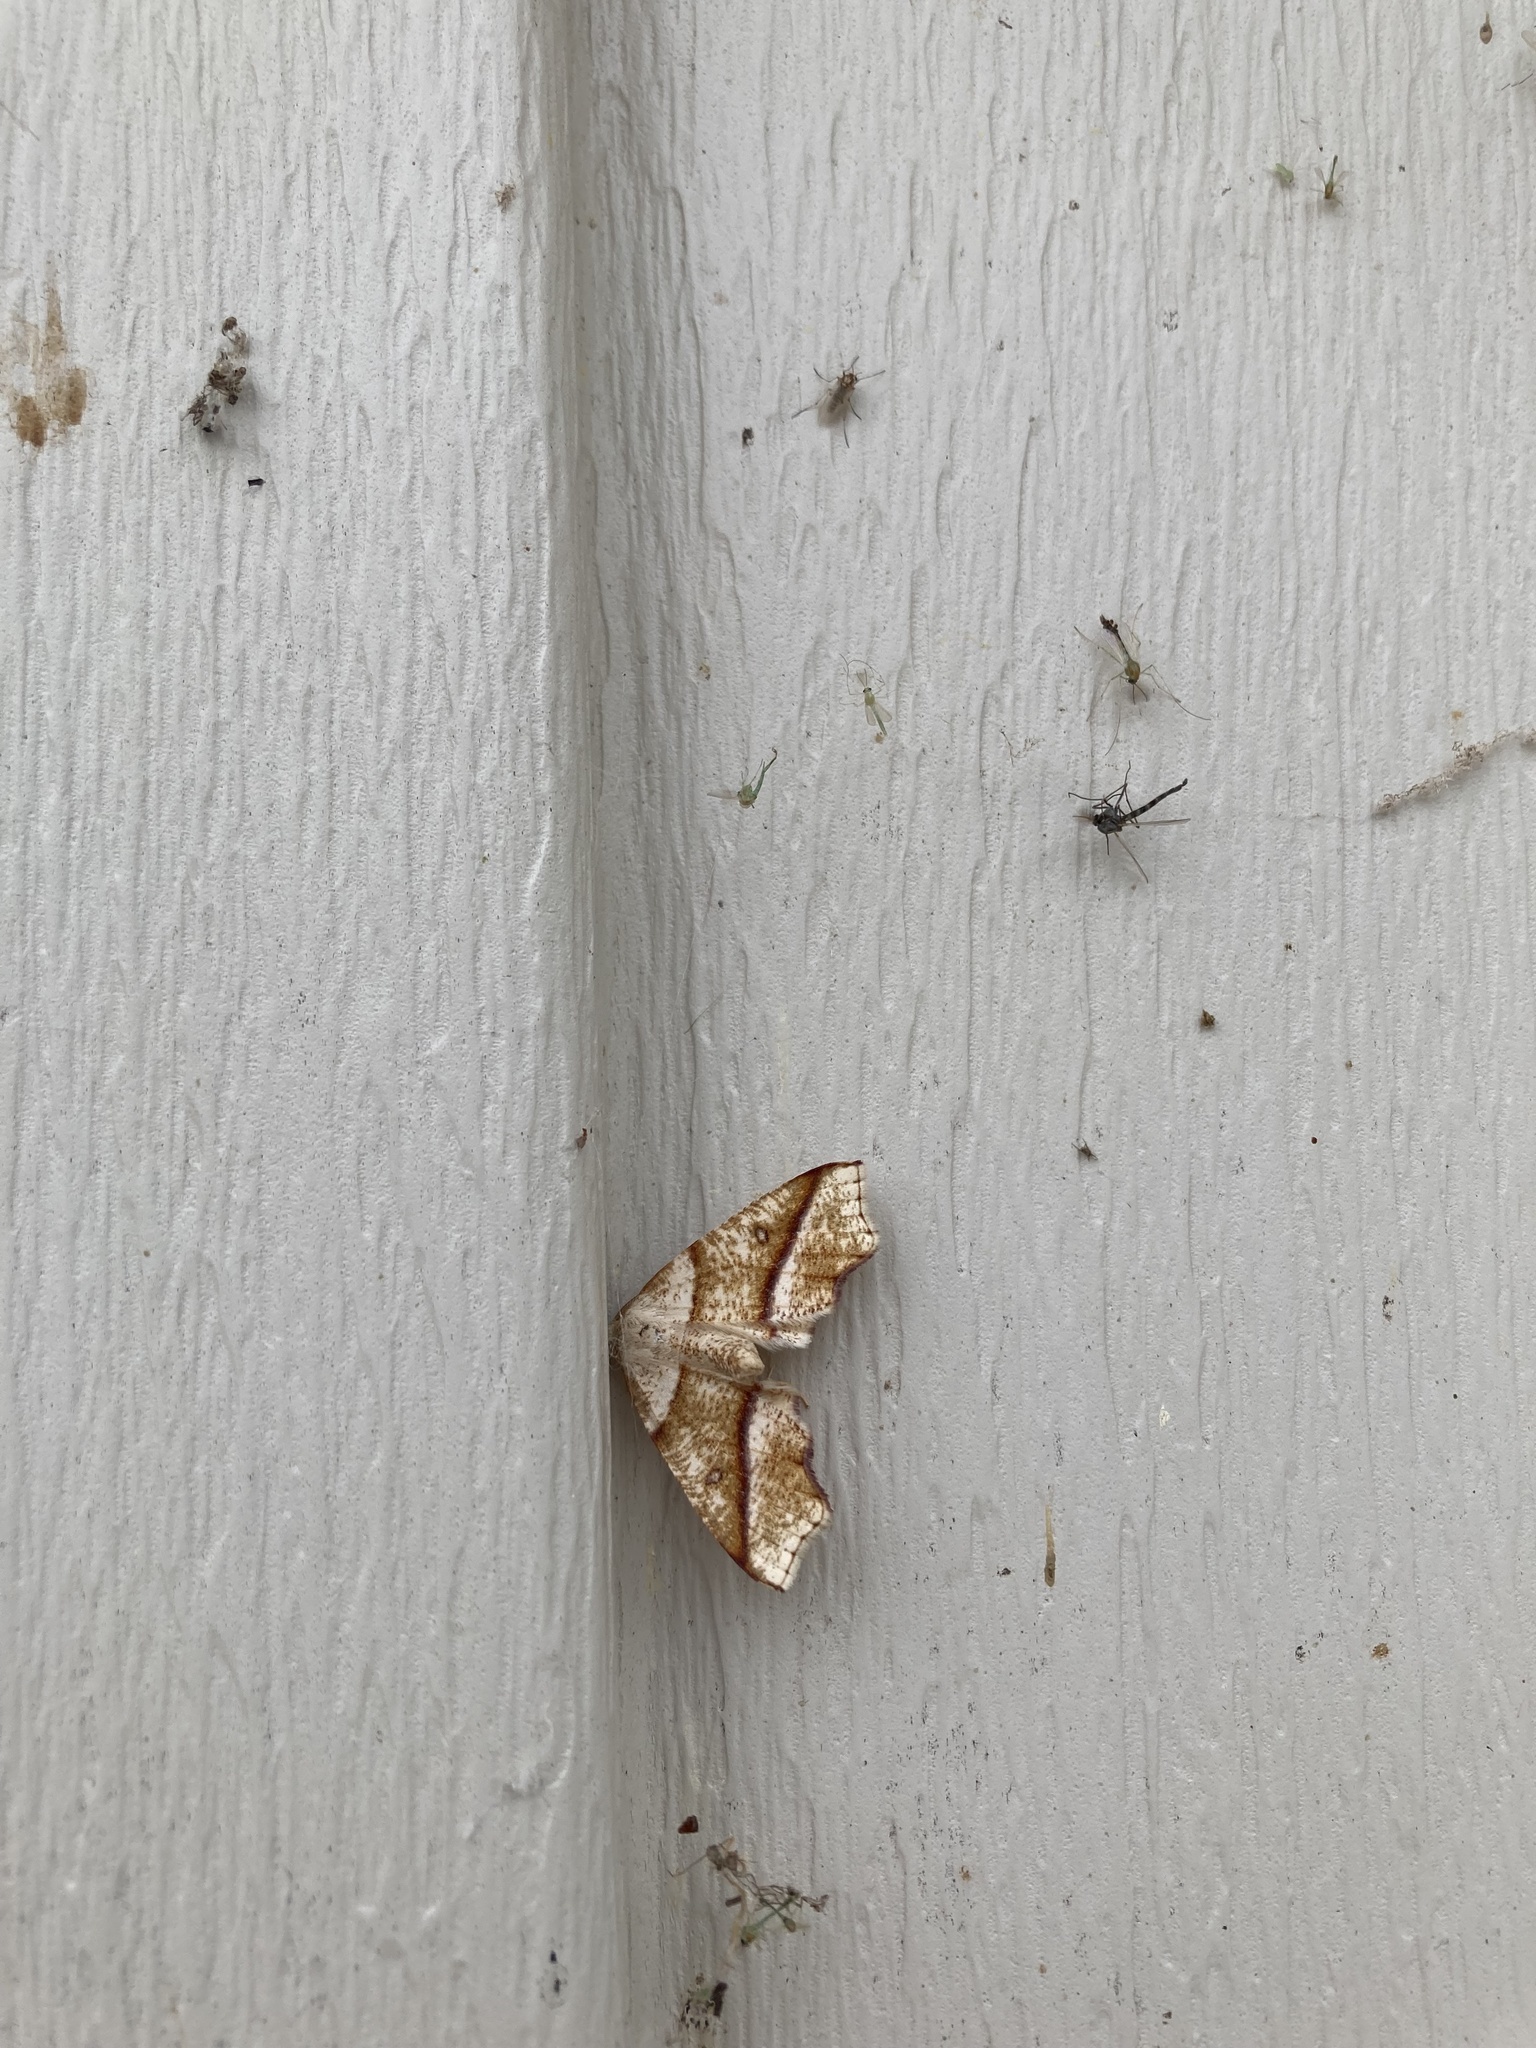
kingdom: Animalia
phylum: Arthropoda
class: Insecta
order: Lepidoptera
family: Geometridae
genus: Plagodis
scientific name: Plagodis alcoolaria
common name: Hollow-spotted plagodis
